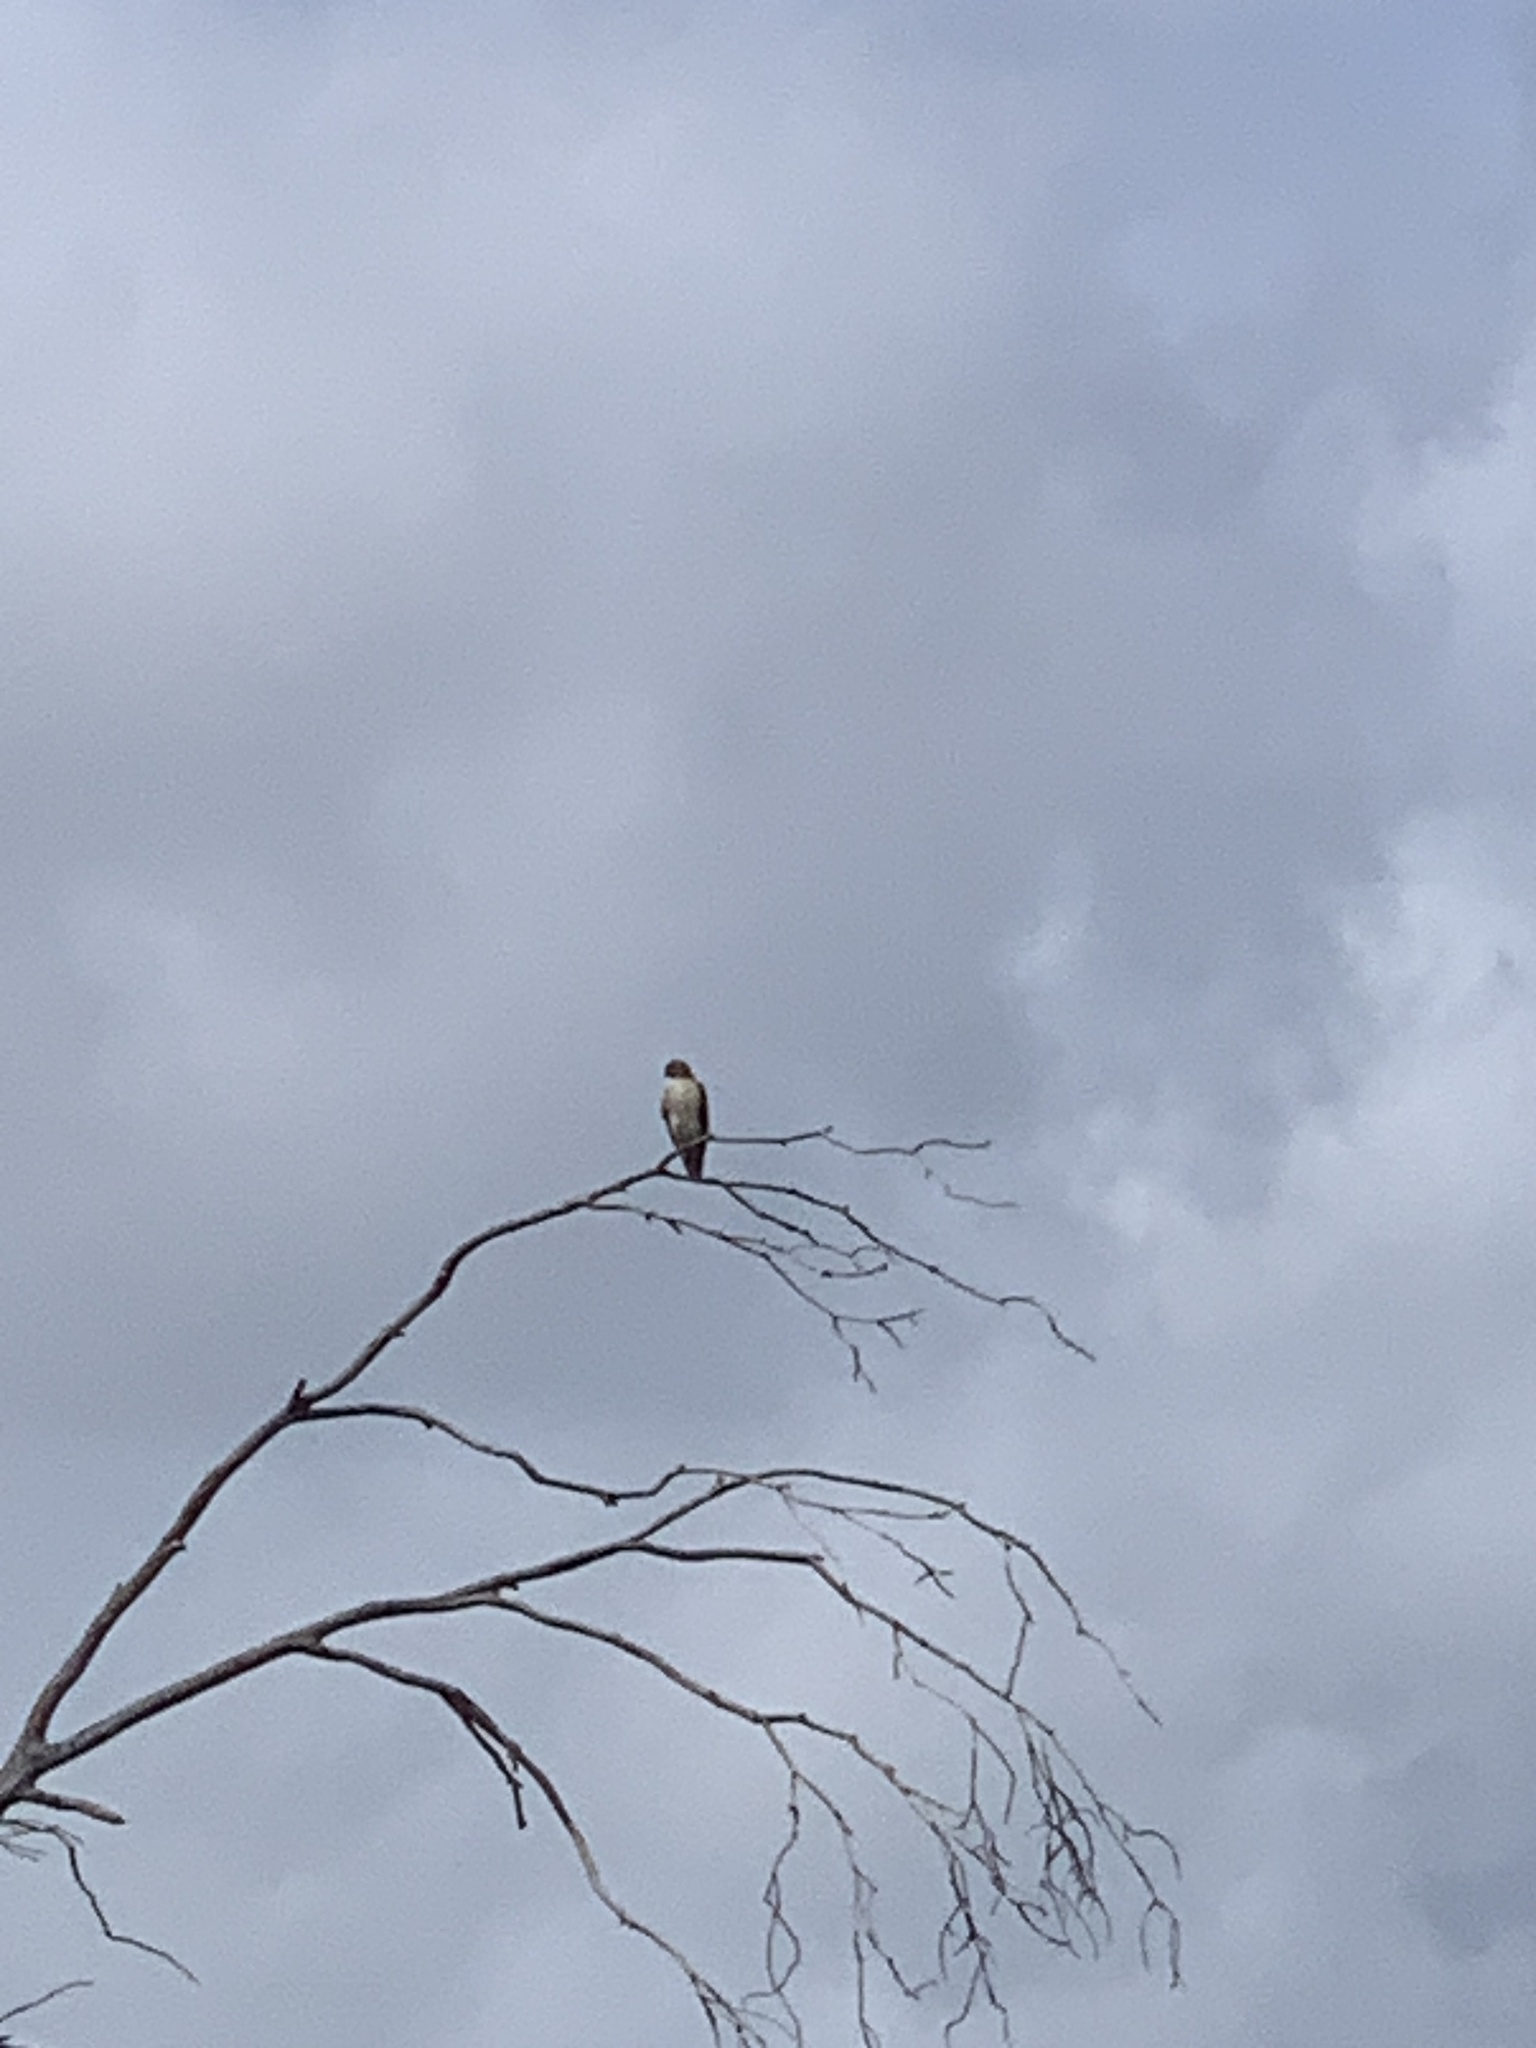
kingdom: Animalia
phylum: Chordata
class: Aves
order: Accipitriformes
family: Accipitridae
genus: Buteo
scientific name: Buteo jamaicensis
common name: Red-tailed hawk
